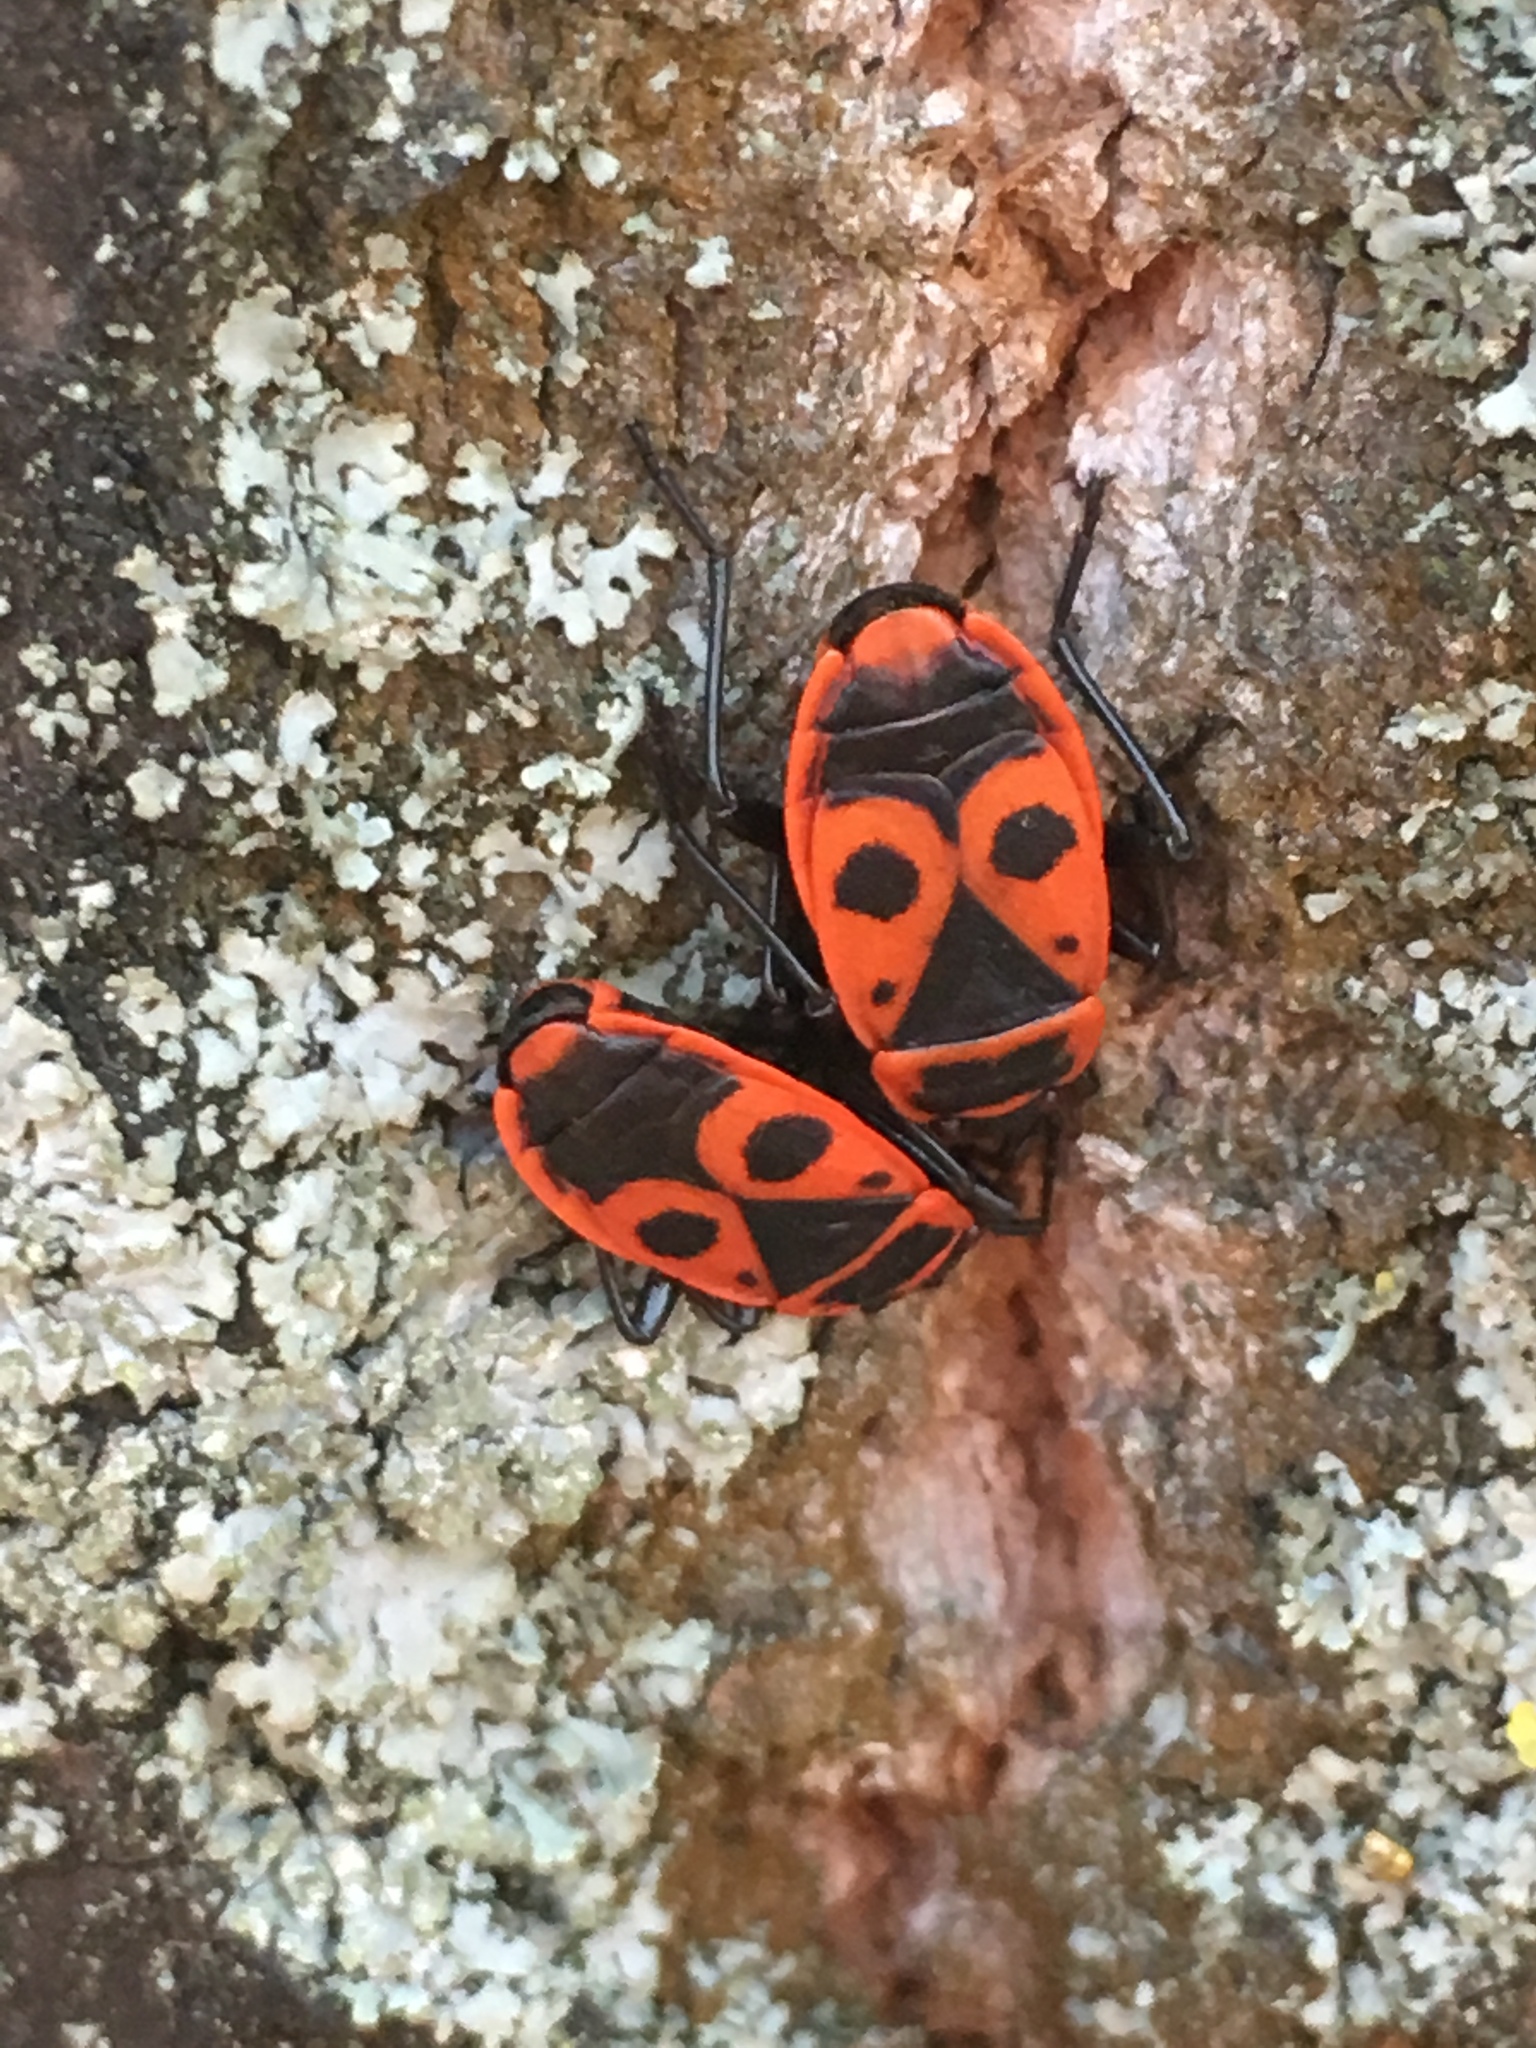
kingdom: Animalia
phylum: Arthropoda
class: Insecta
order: Hemiptera
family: Pyrrhocoridae
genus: Pyrrhocoris
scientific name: Pyrrhocoris apterus
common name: Firebug
